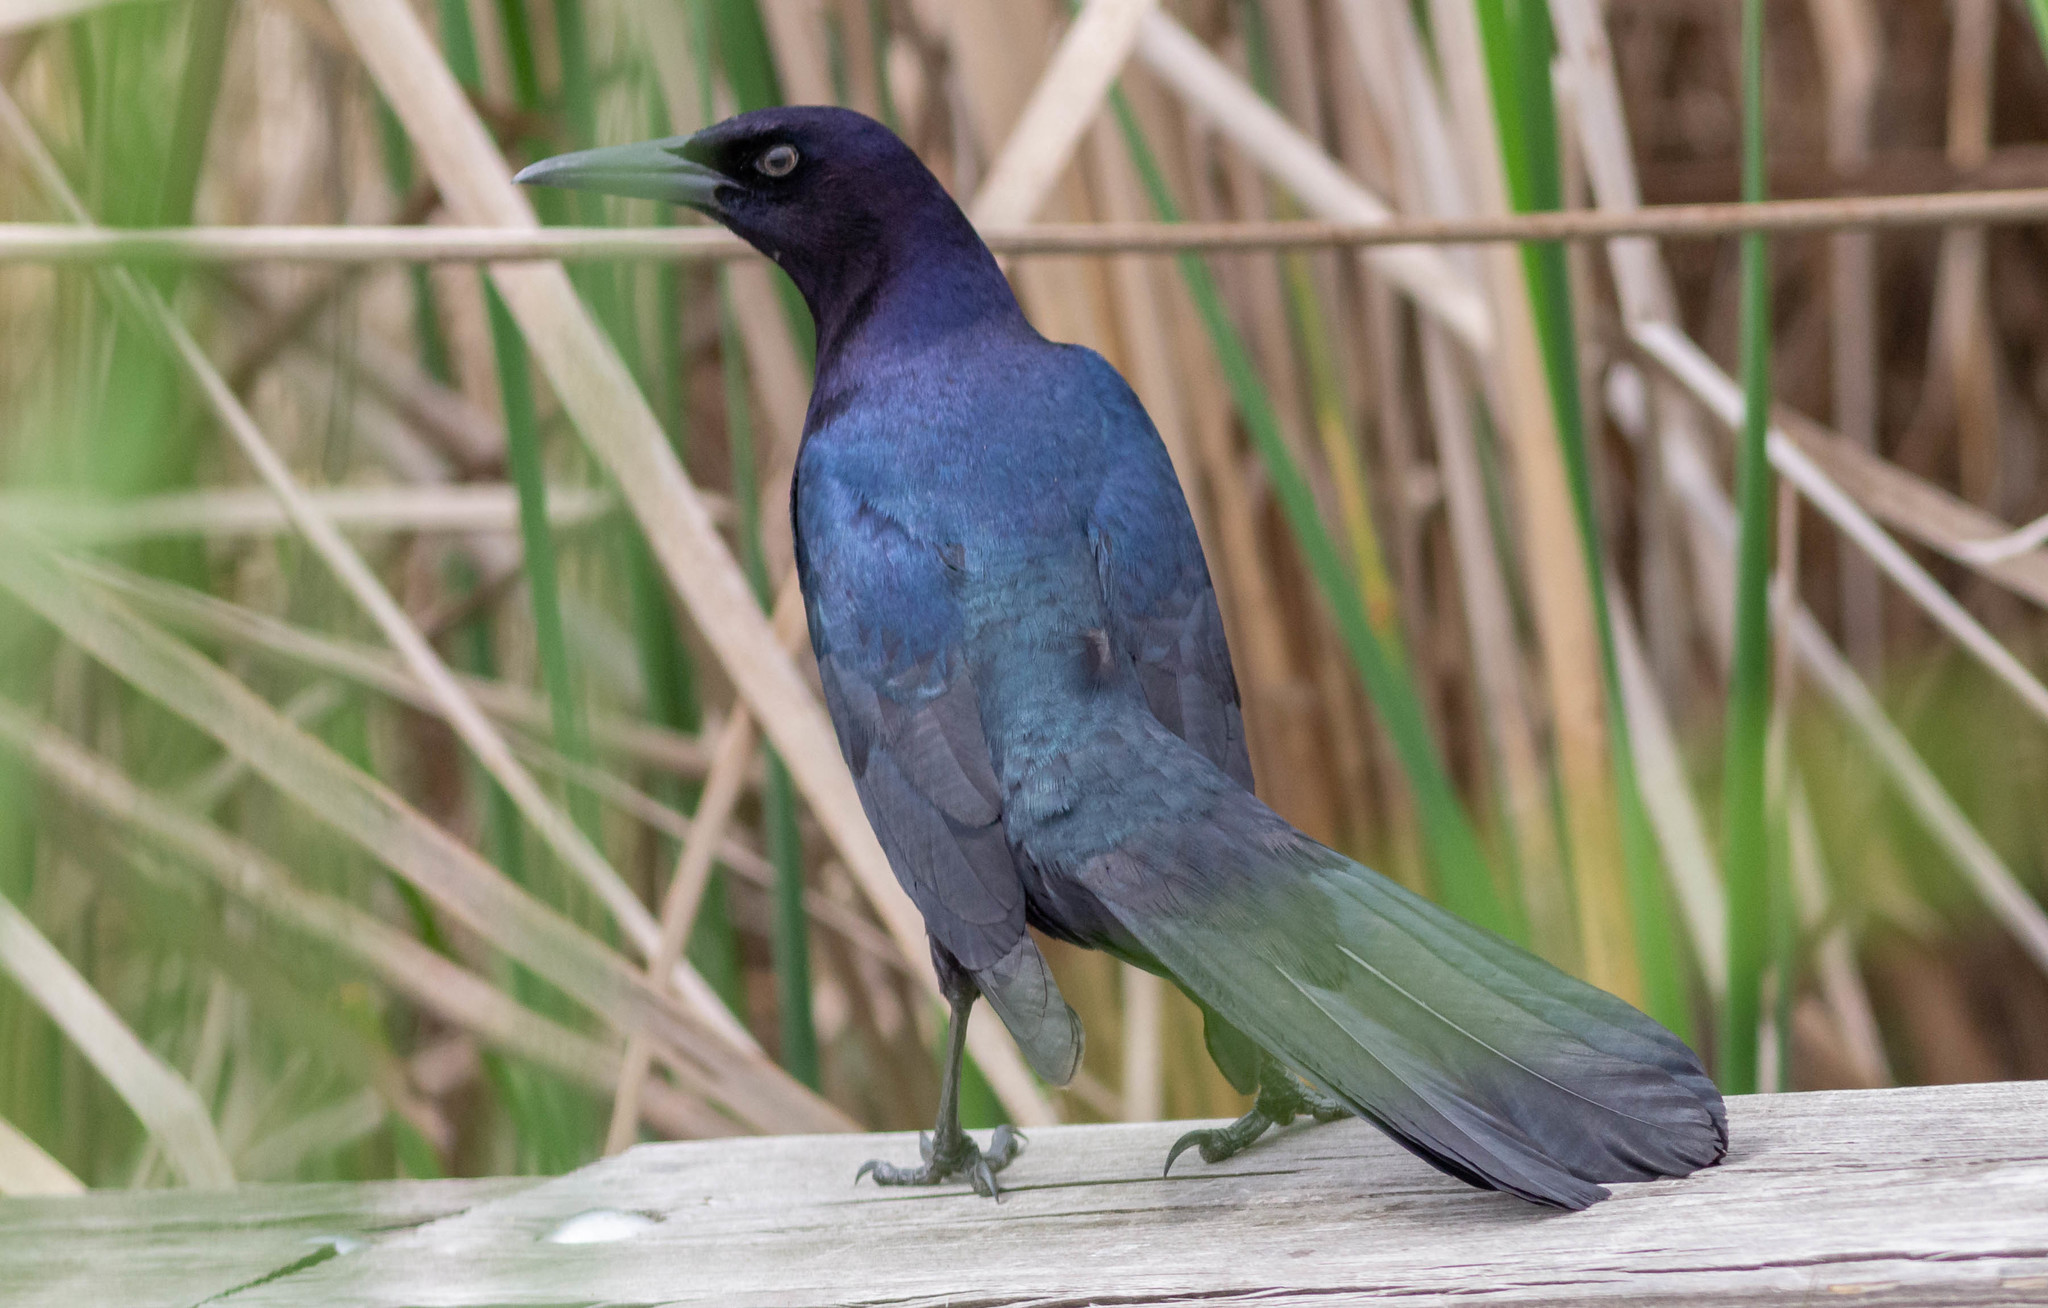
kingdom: Animalia
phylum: Chordata
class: Aves
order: Passeriformes
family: Icteridae
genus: Quiscalus
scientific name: Quiscalus major
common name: Boat-tailed grackle
